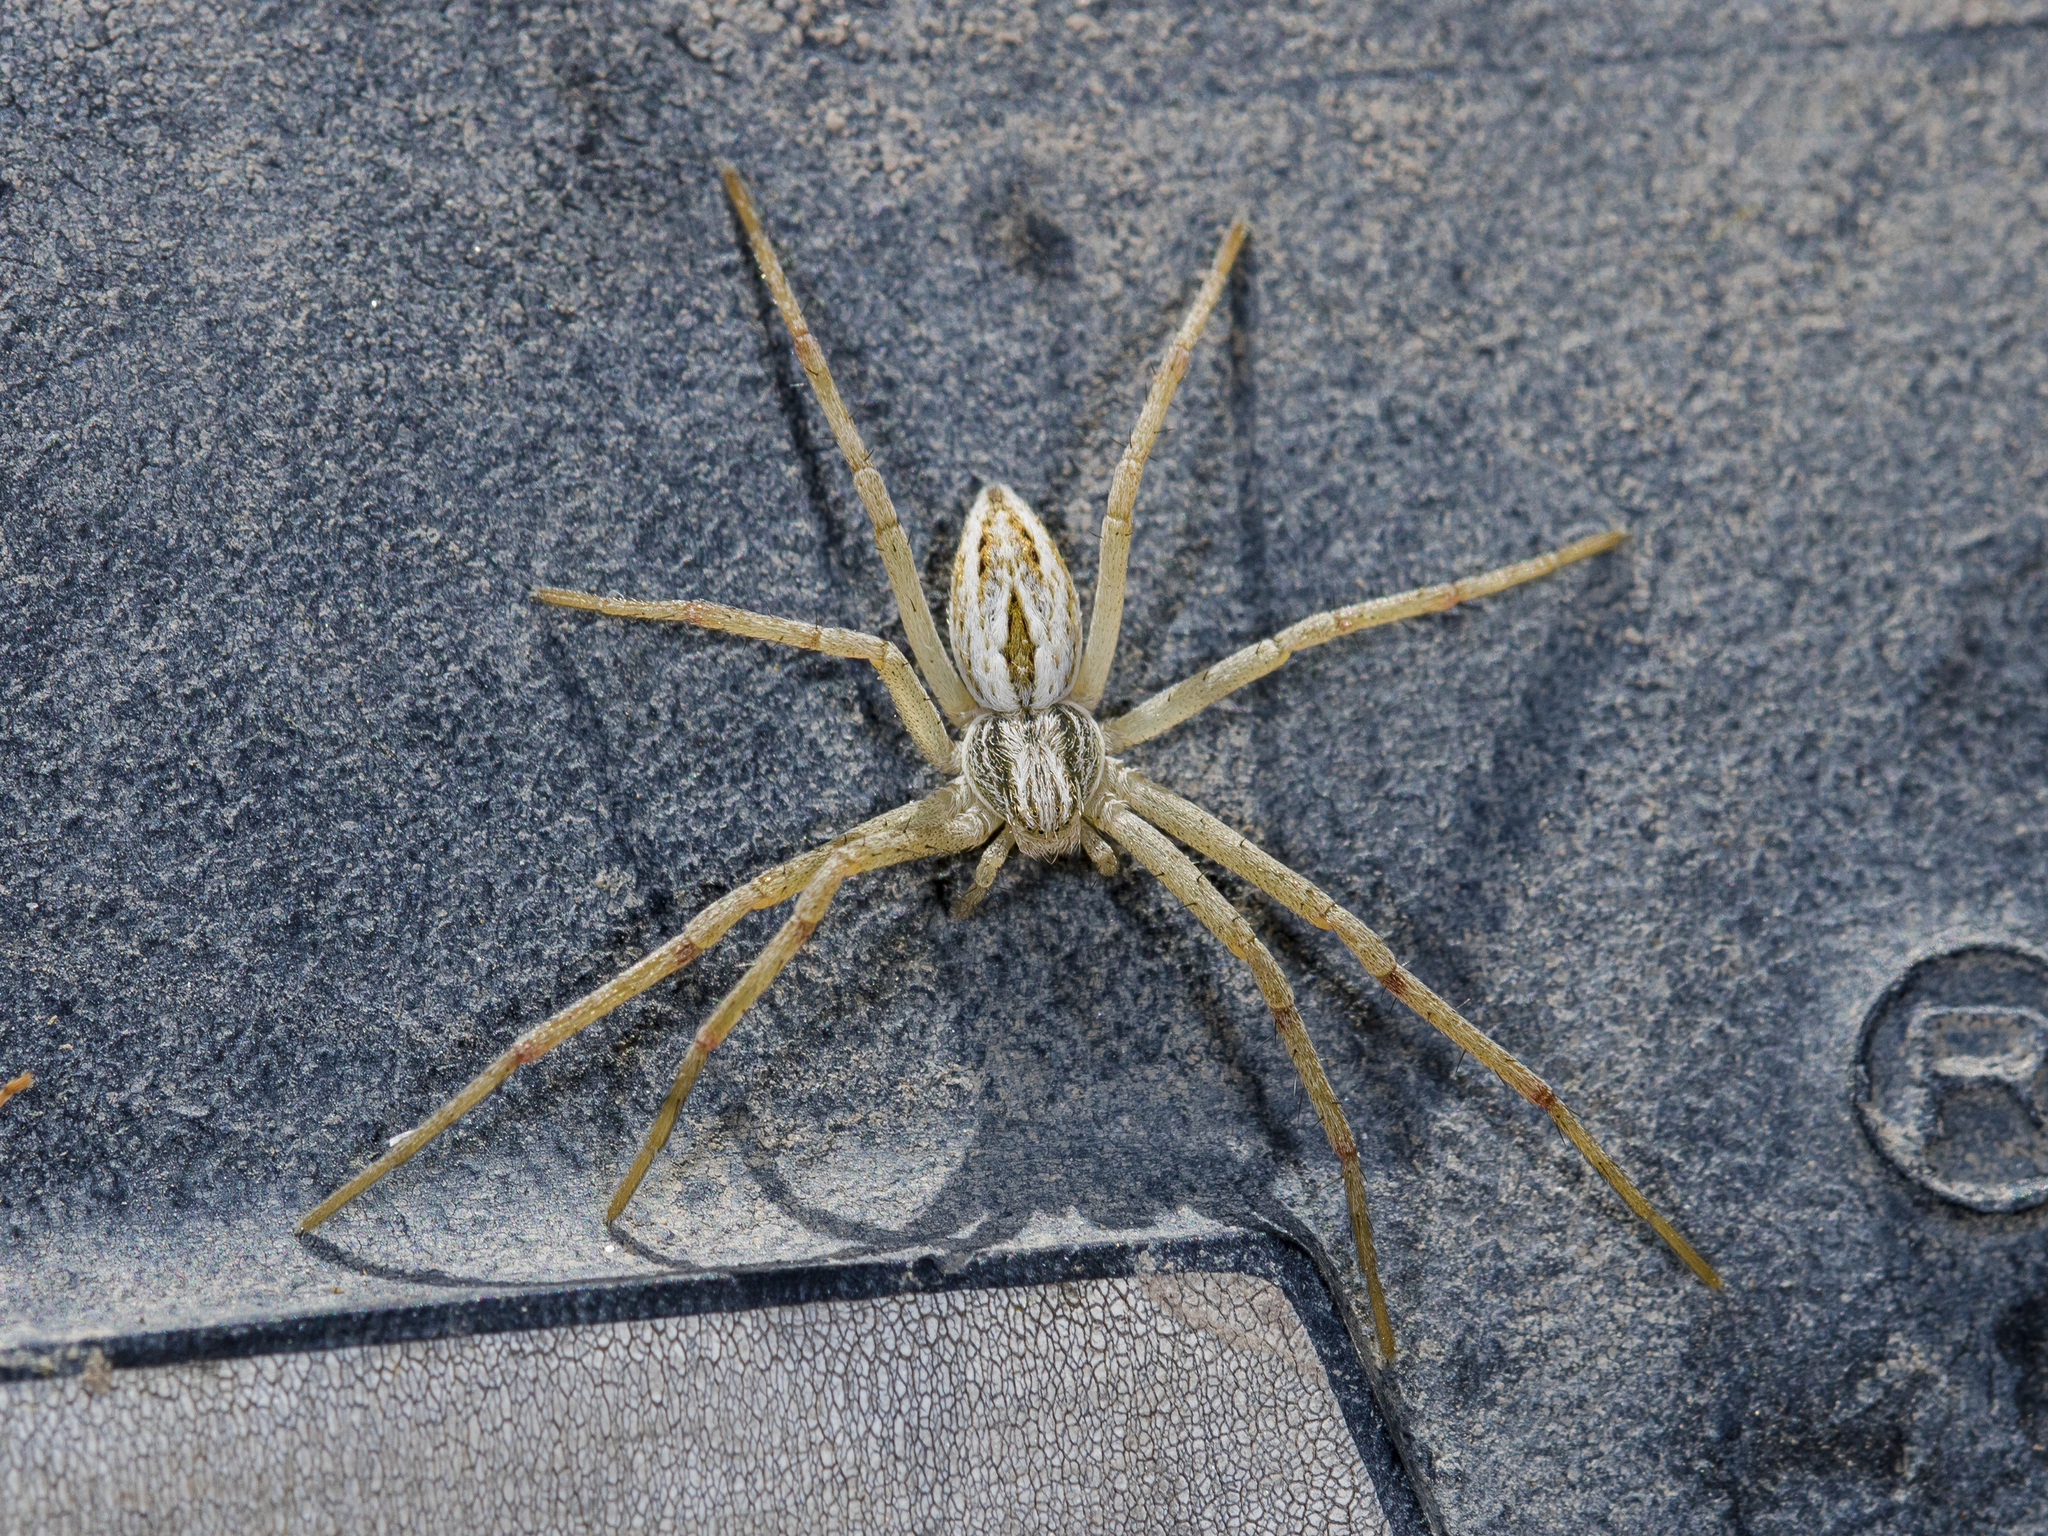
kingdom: Animalia
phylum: Arthropoda
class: Arachnida
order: Araneae
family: Philodromidae
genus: Thanatus
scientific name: Thanatus oblongiusculus
